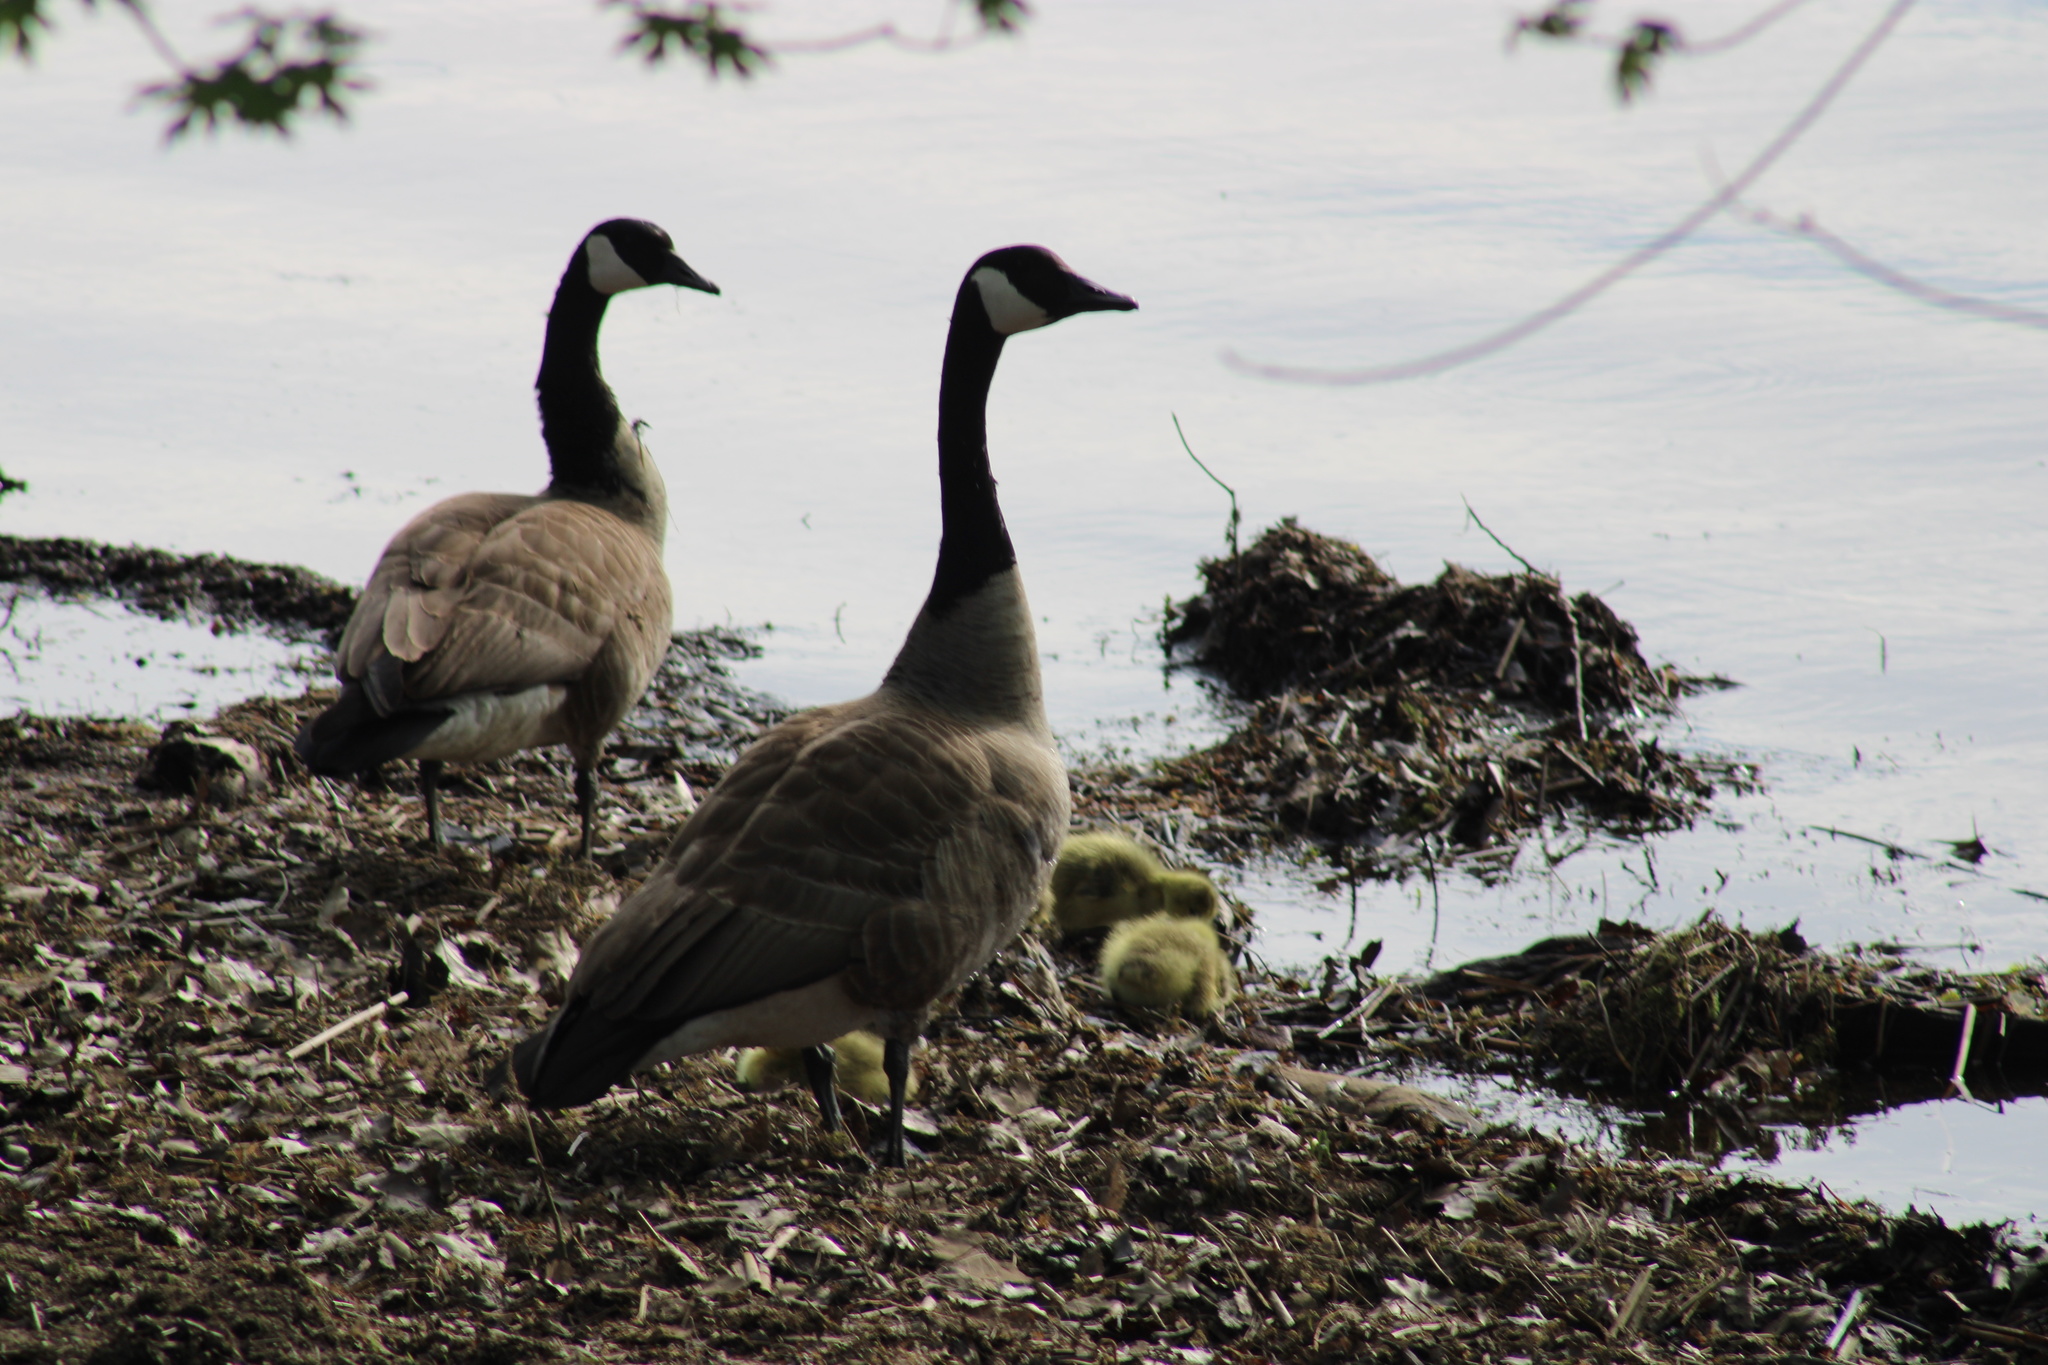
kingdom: Animalia
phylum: Chordata
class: Aves
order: Anseriformes
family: Anatidae
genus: Branta
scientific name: Branta canadensis
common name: Canada goose
